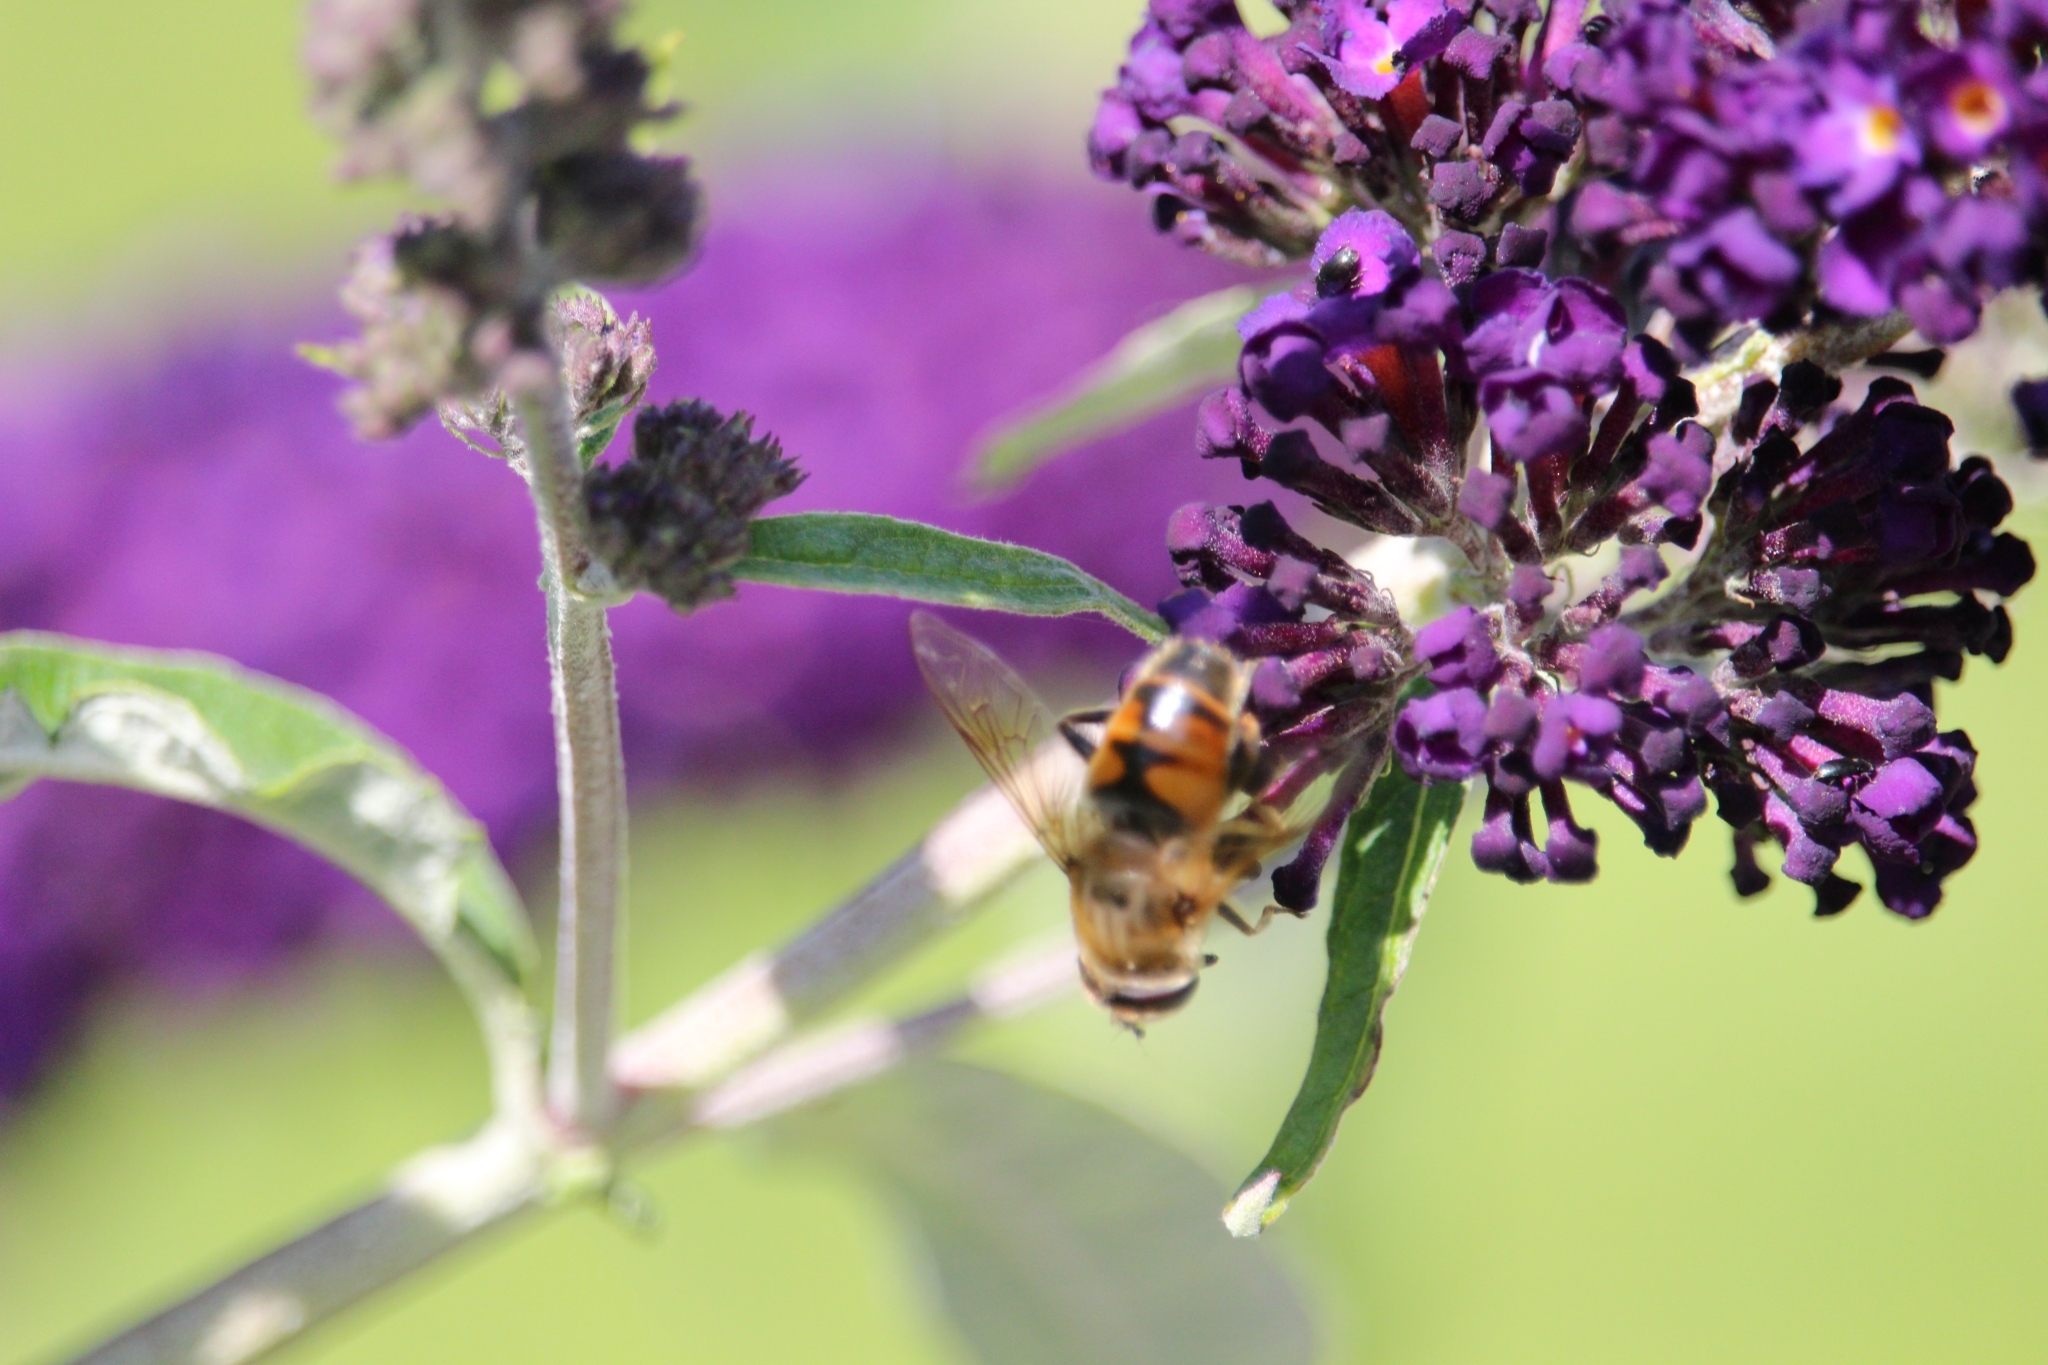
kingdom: Animalia
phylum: Arthropoda
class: Insecta
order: Diptera
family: Syrphidae
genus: Eristalis
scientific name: Eristalis tenax
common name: Drone fly
